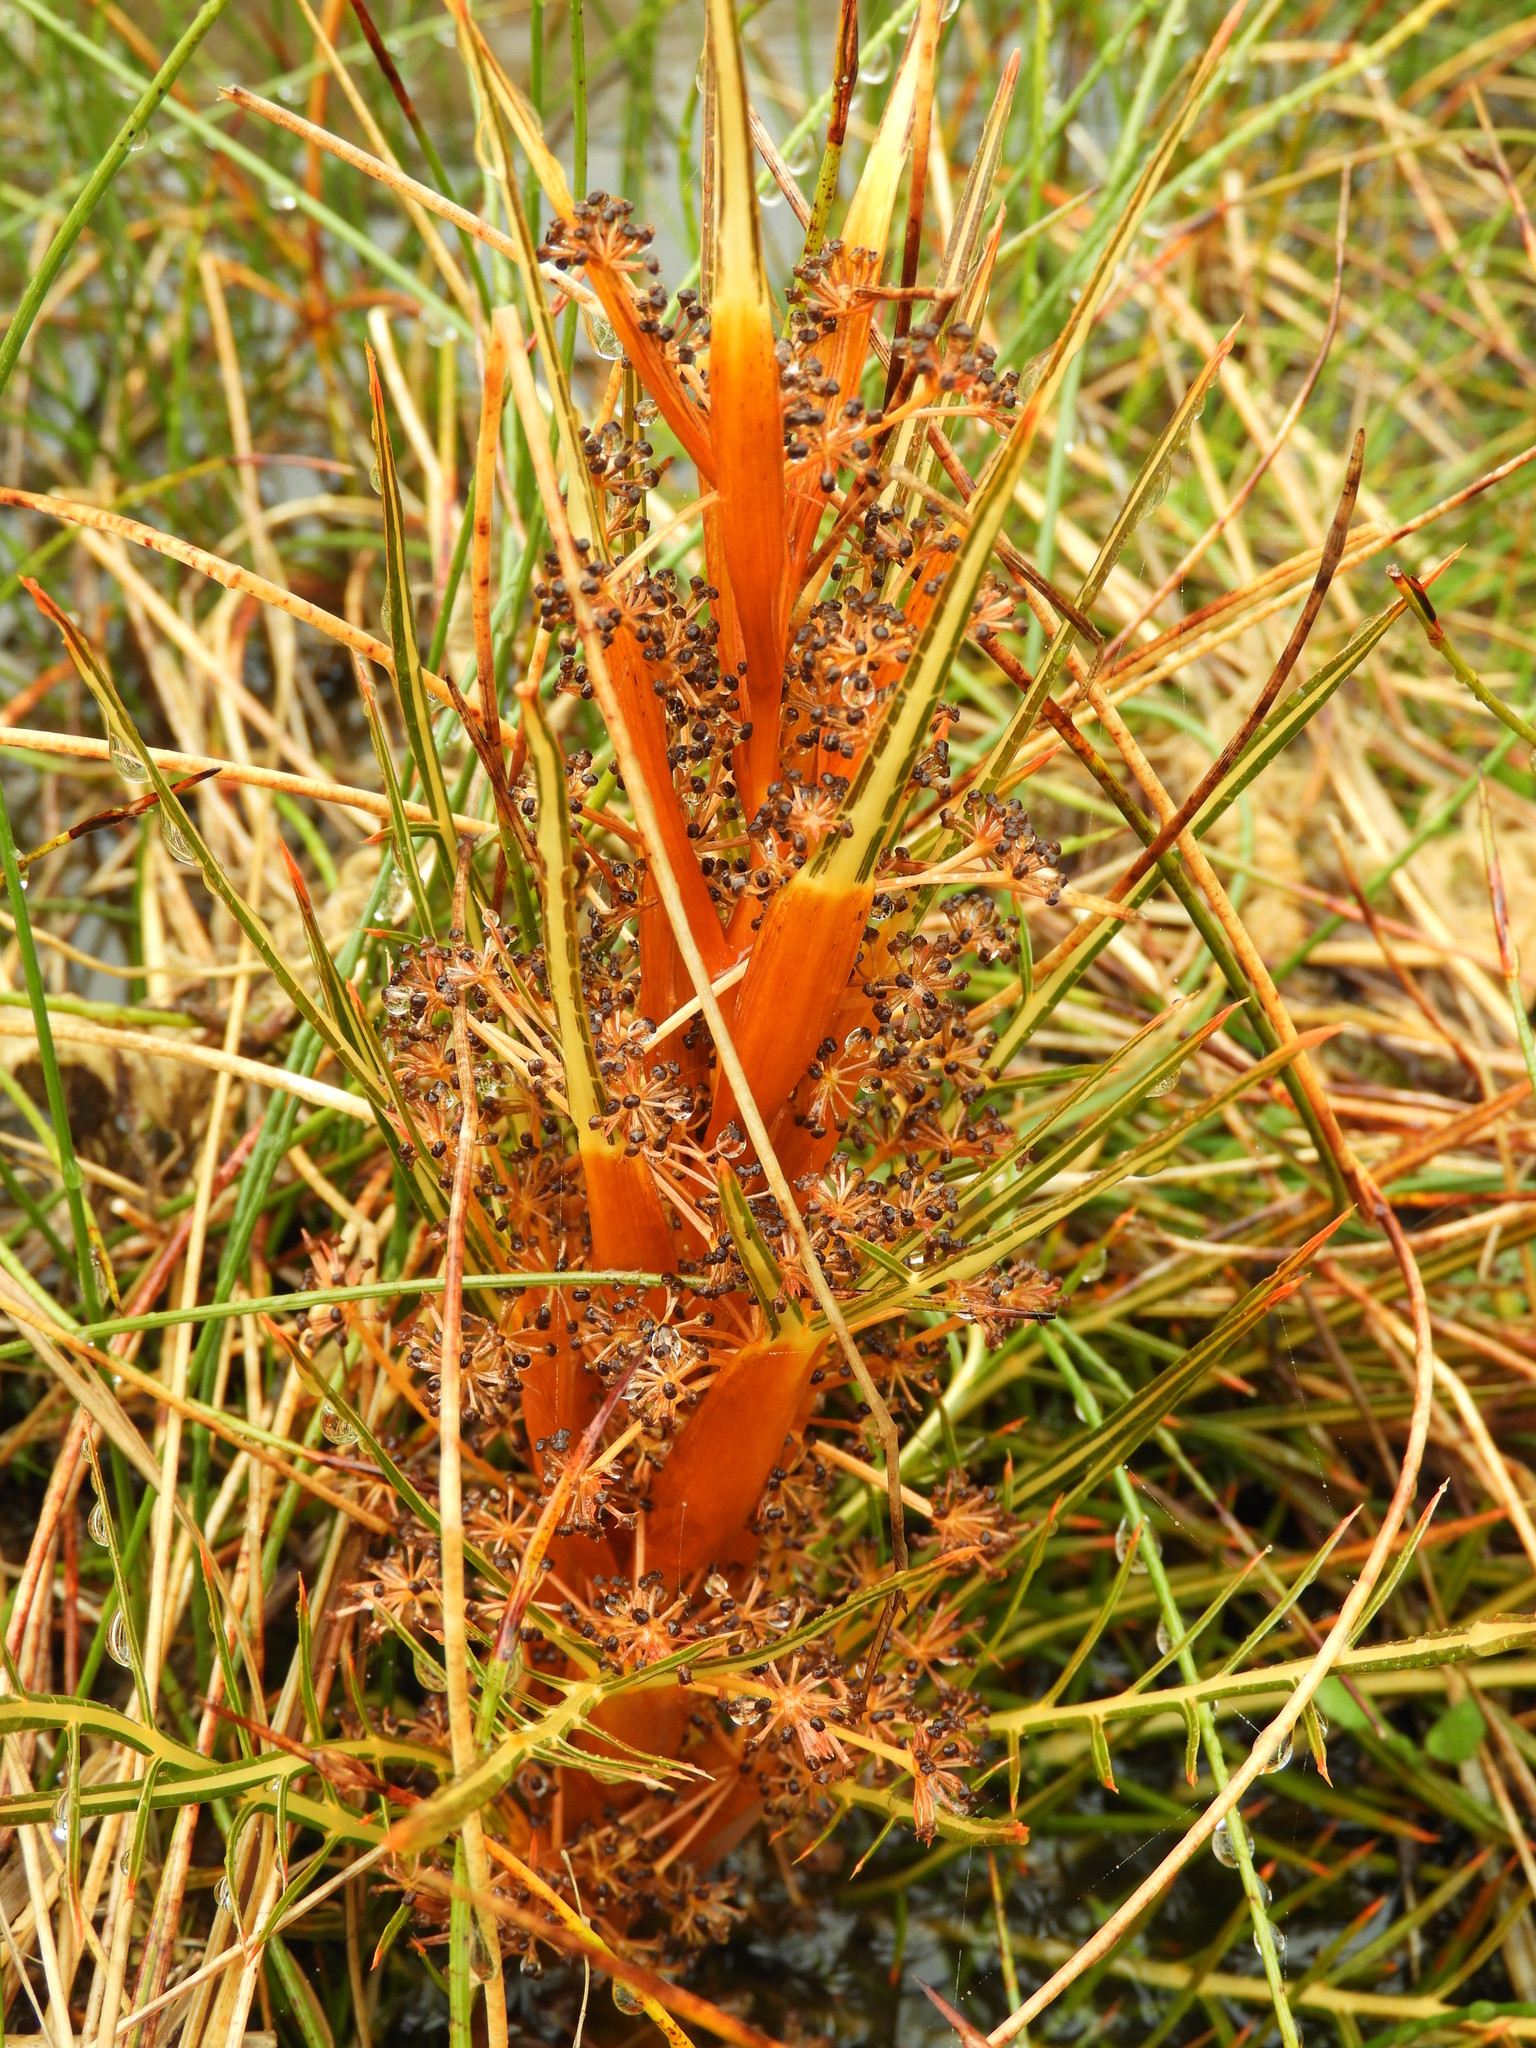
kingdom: Plantae
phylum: Tracheophyta
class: Magnoliopsida
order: Apiales
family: Apiaceae
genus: Aciphylla
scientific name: Aciphylla pinnatifida
